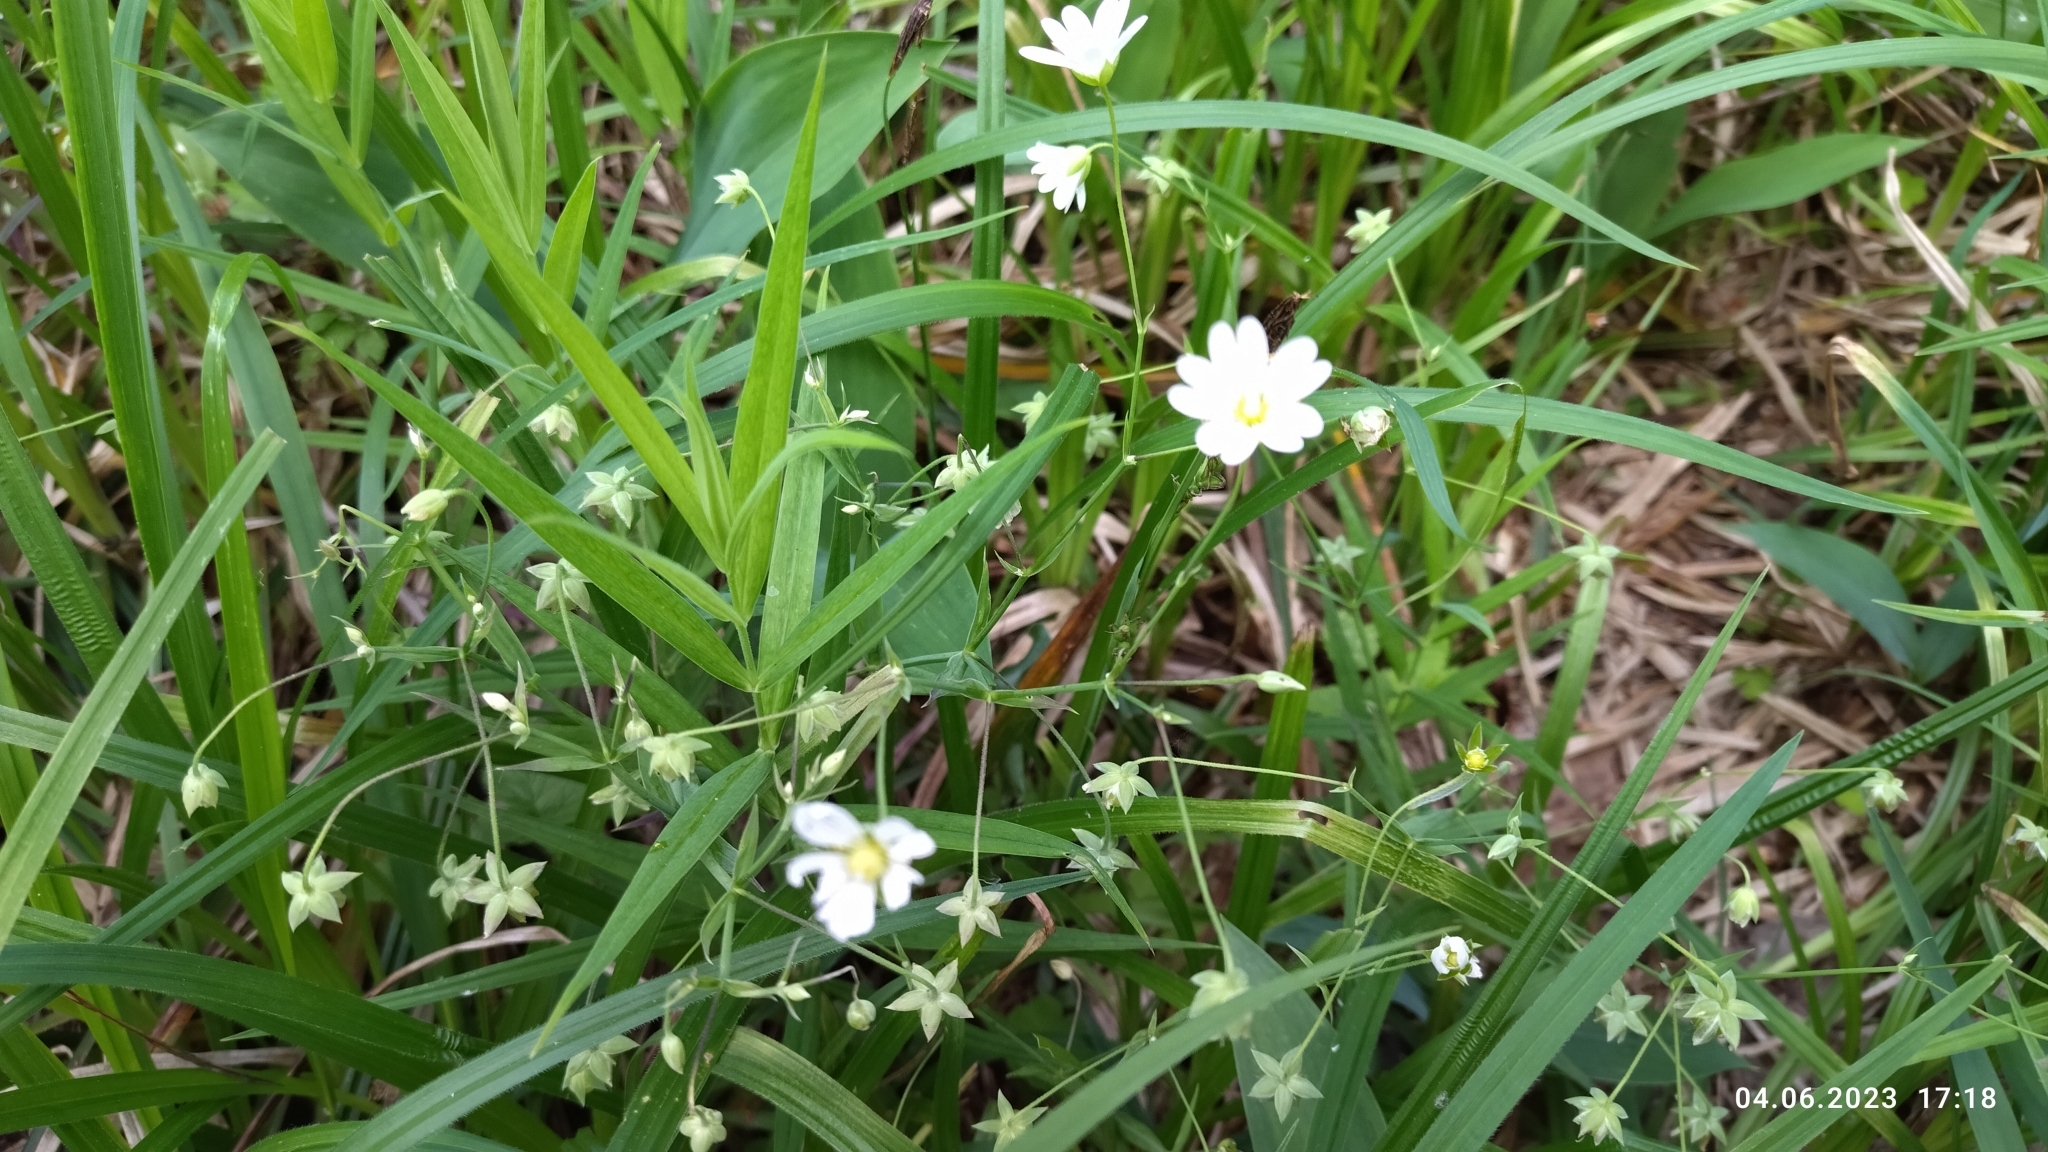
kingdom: Plantae
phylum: Tracheophyta
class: Magnoliopsida
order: Caryophyllales
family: Caryophyllaceae
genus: Rabelera
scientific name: Rabelera holostea
